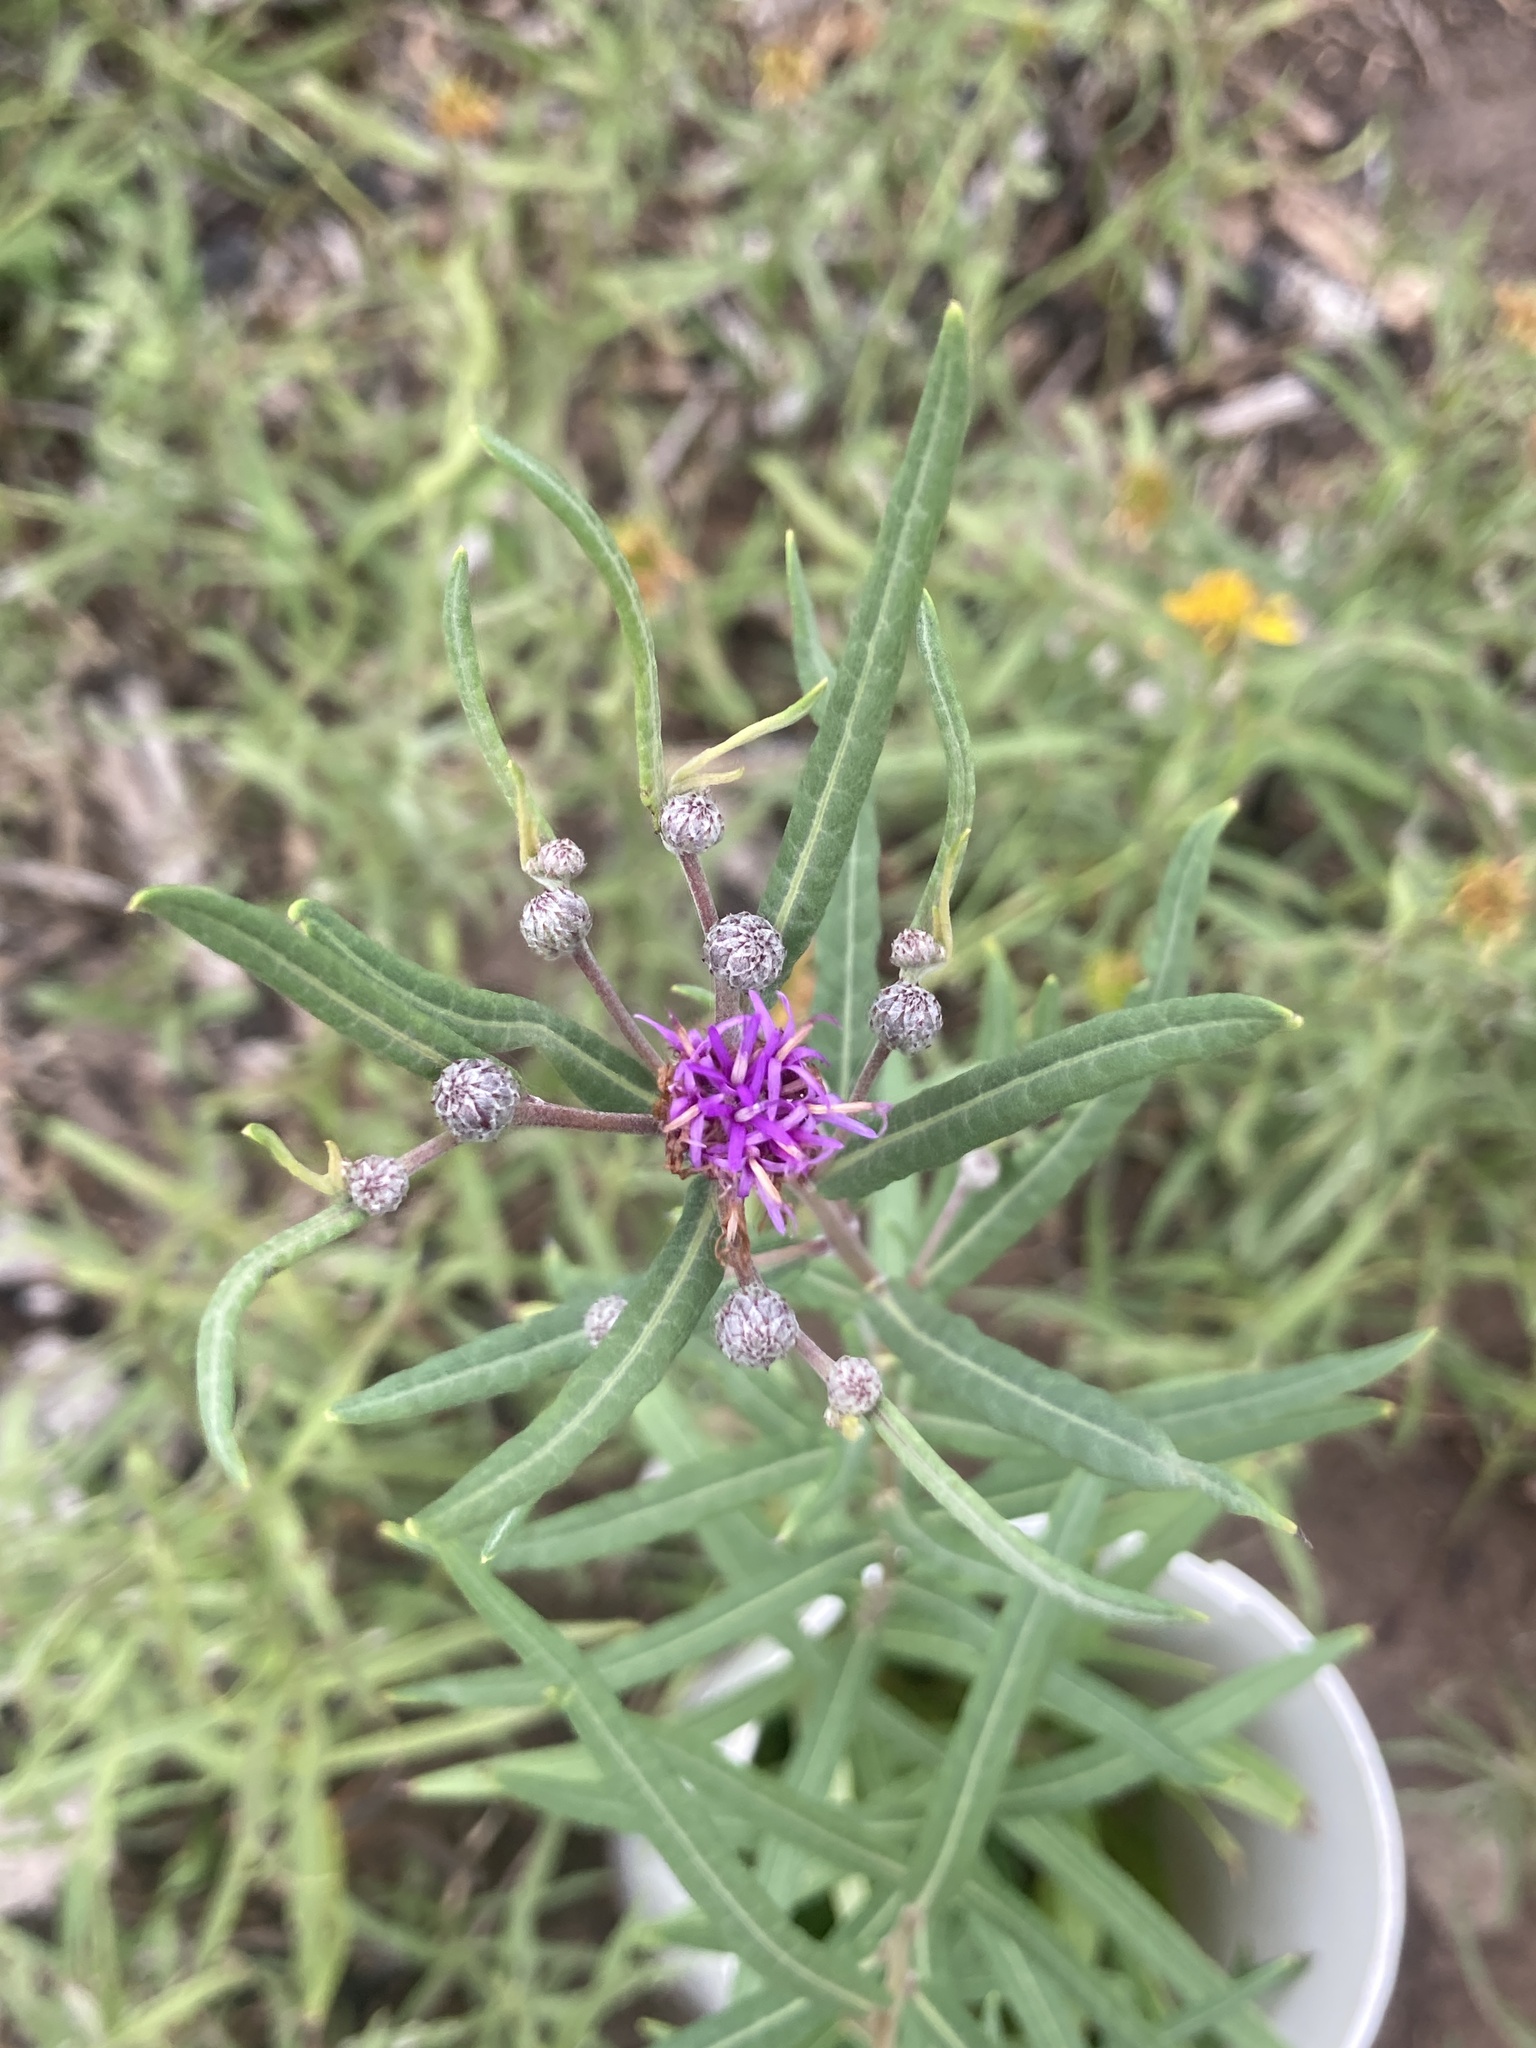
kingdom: Plantae
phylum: Tracheophyta
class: Magnoliopsida
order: Asterales
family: Asteraceae
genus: Lessingianthus
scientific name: Lessingianthus rubricaulis
